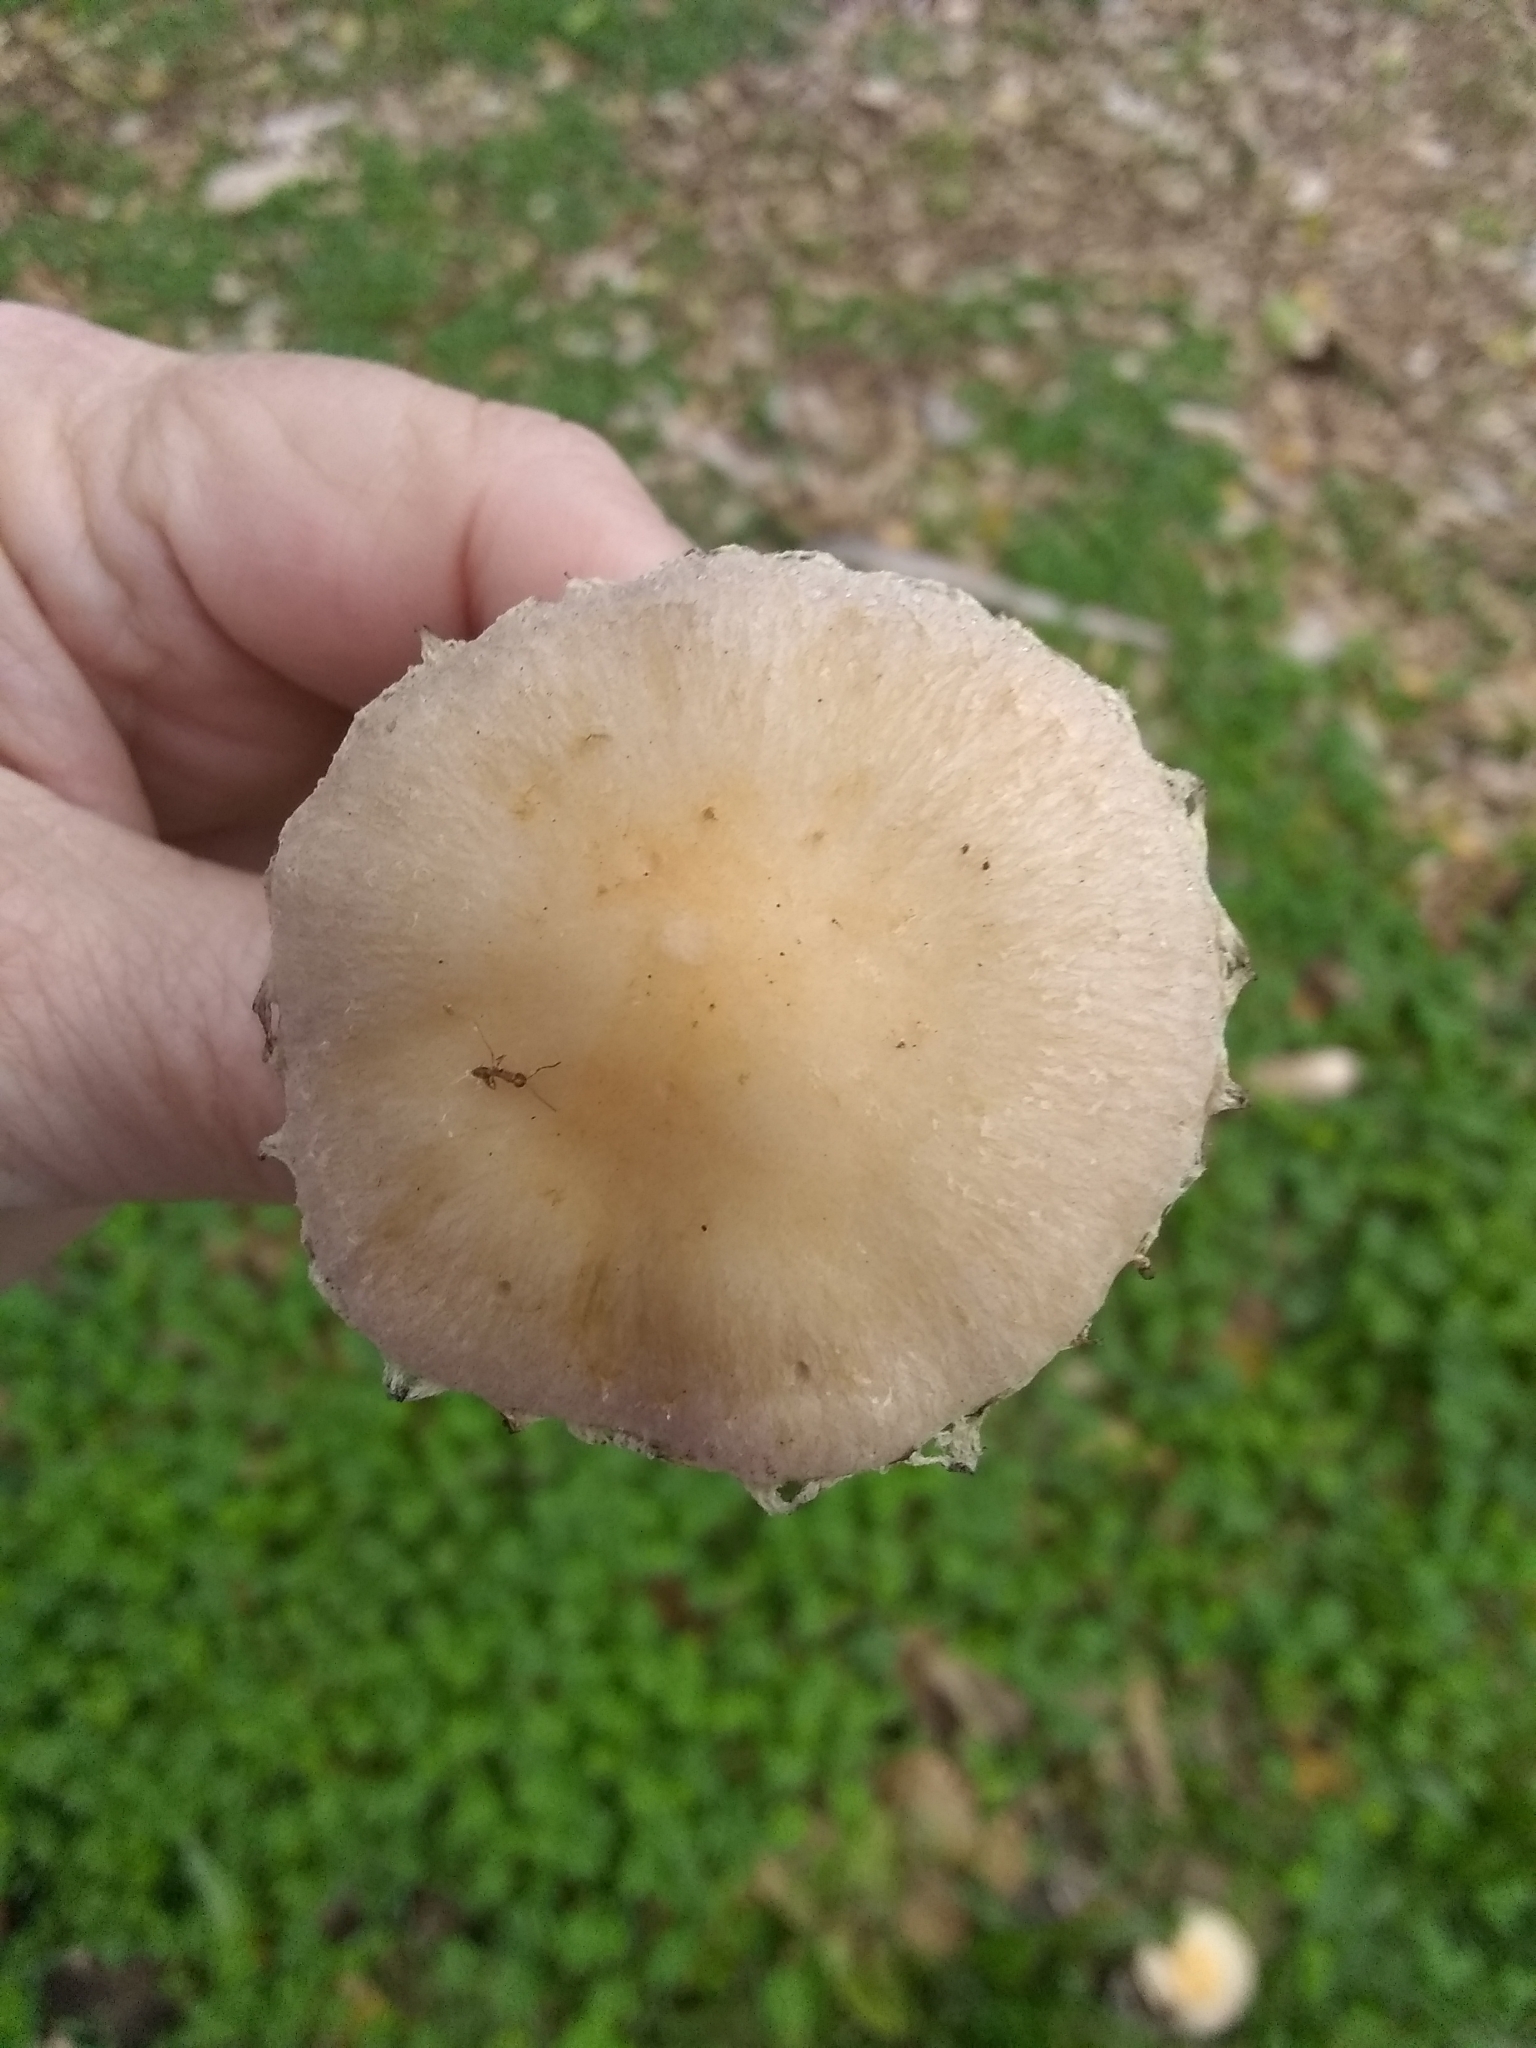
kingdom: Fungi
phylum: Basidiomycota
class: Agaricomycetes
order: Agaricales
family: Strophariaceae
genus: Leratiomyces
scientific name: Leratiomyces percevalii
